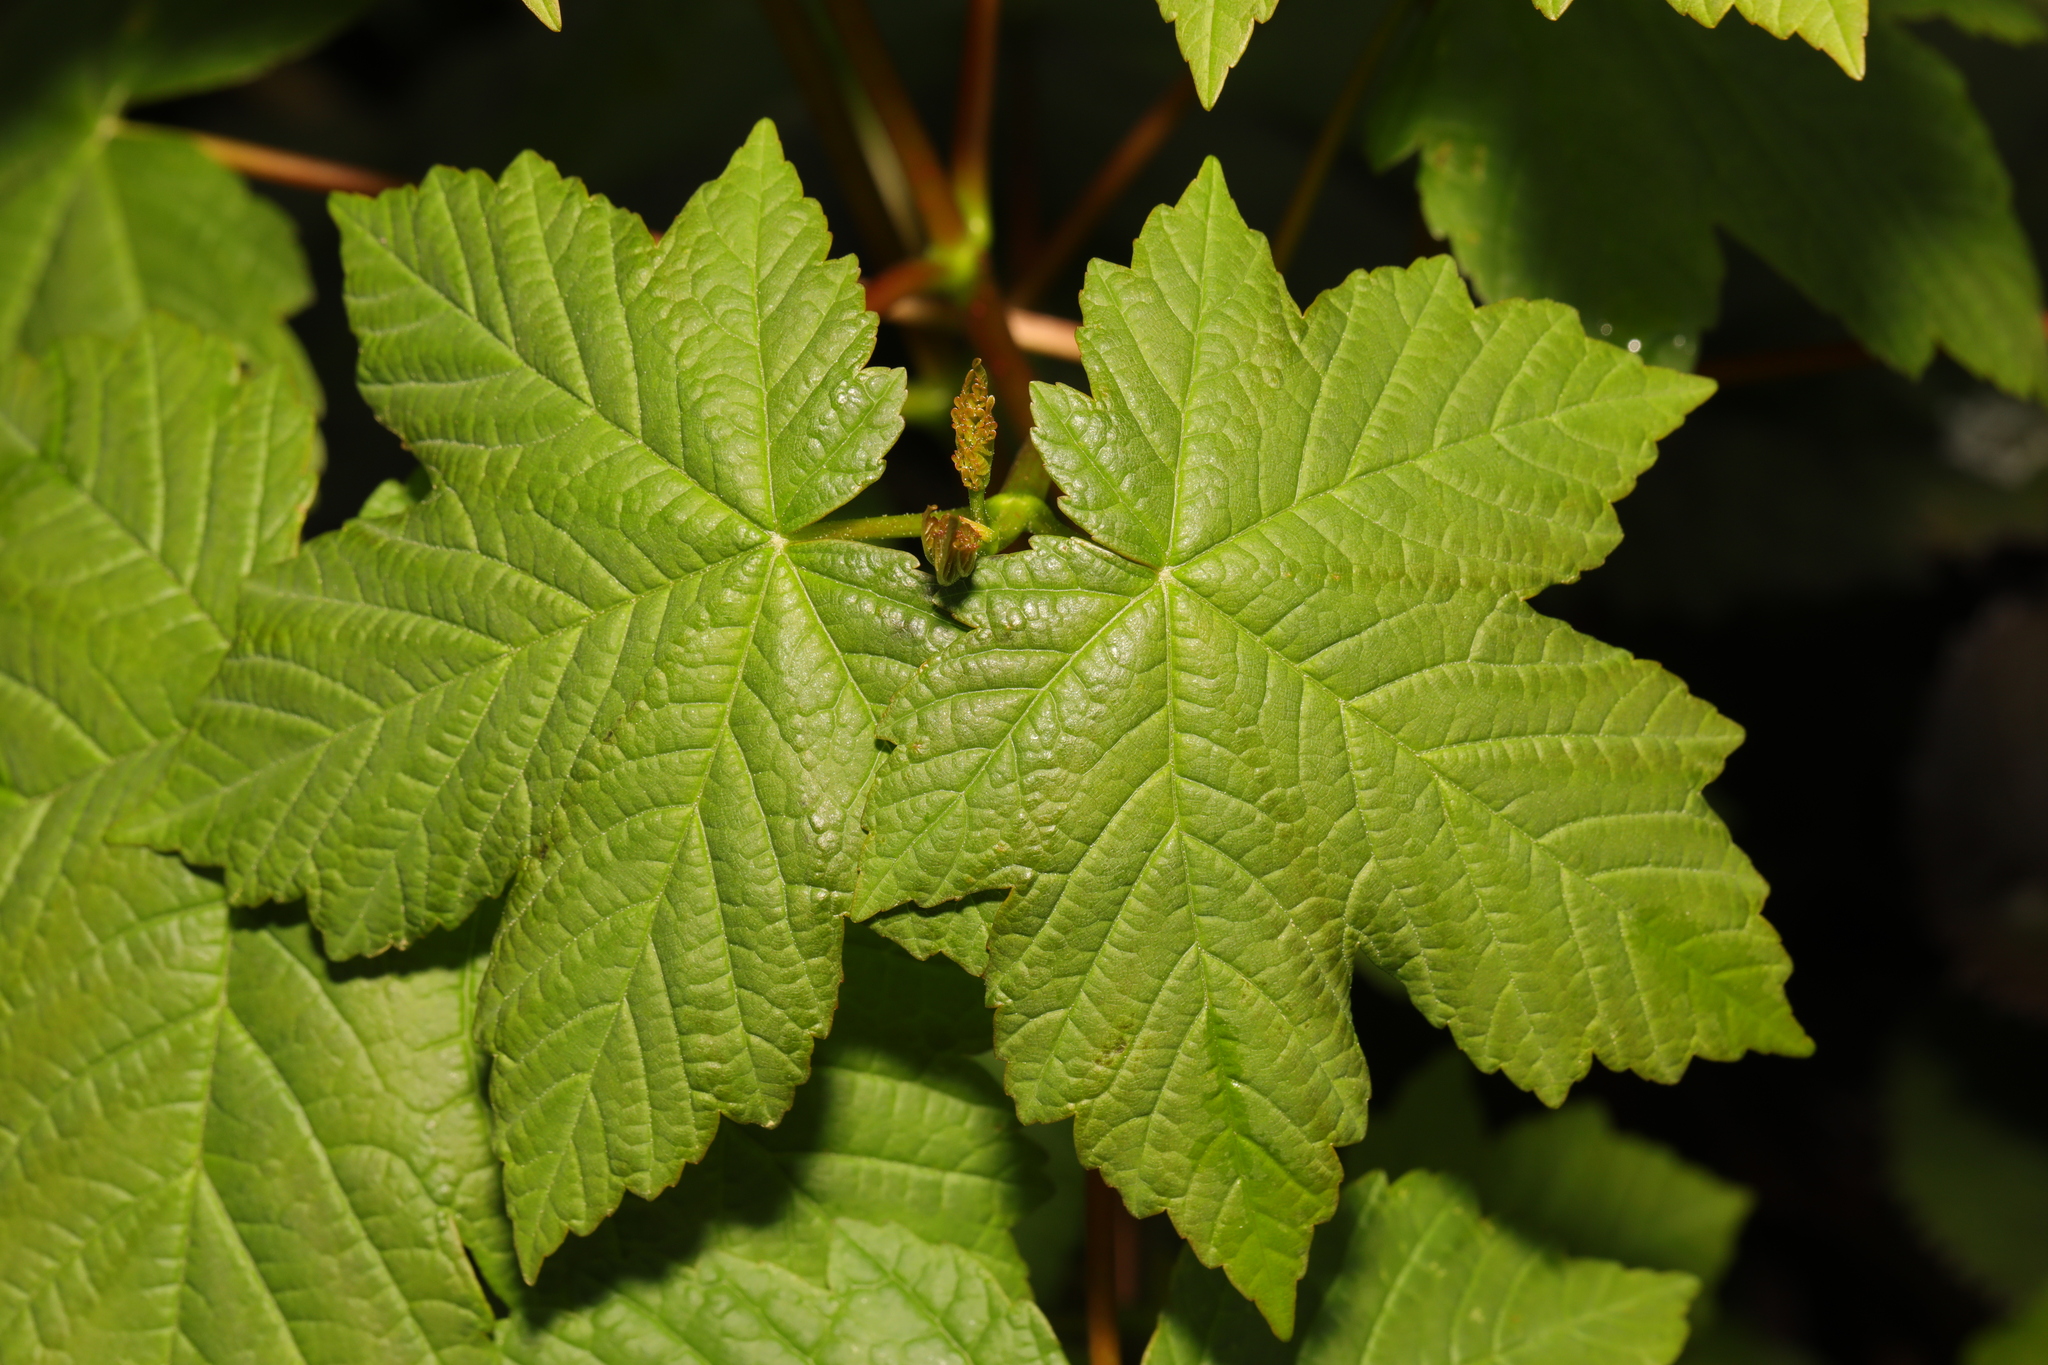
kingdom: Plantae
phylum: Tracheophyta
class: Magnoliopsida
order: Sapindales
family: Sapindaceae
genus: Acer
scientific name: Acer pseudoplatanus
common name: Sycamore
